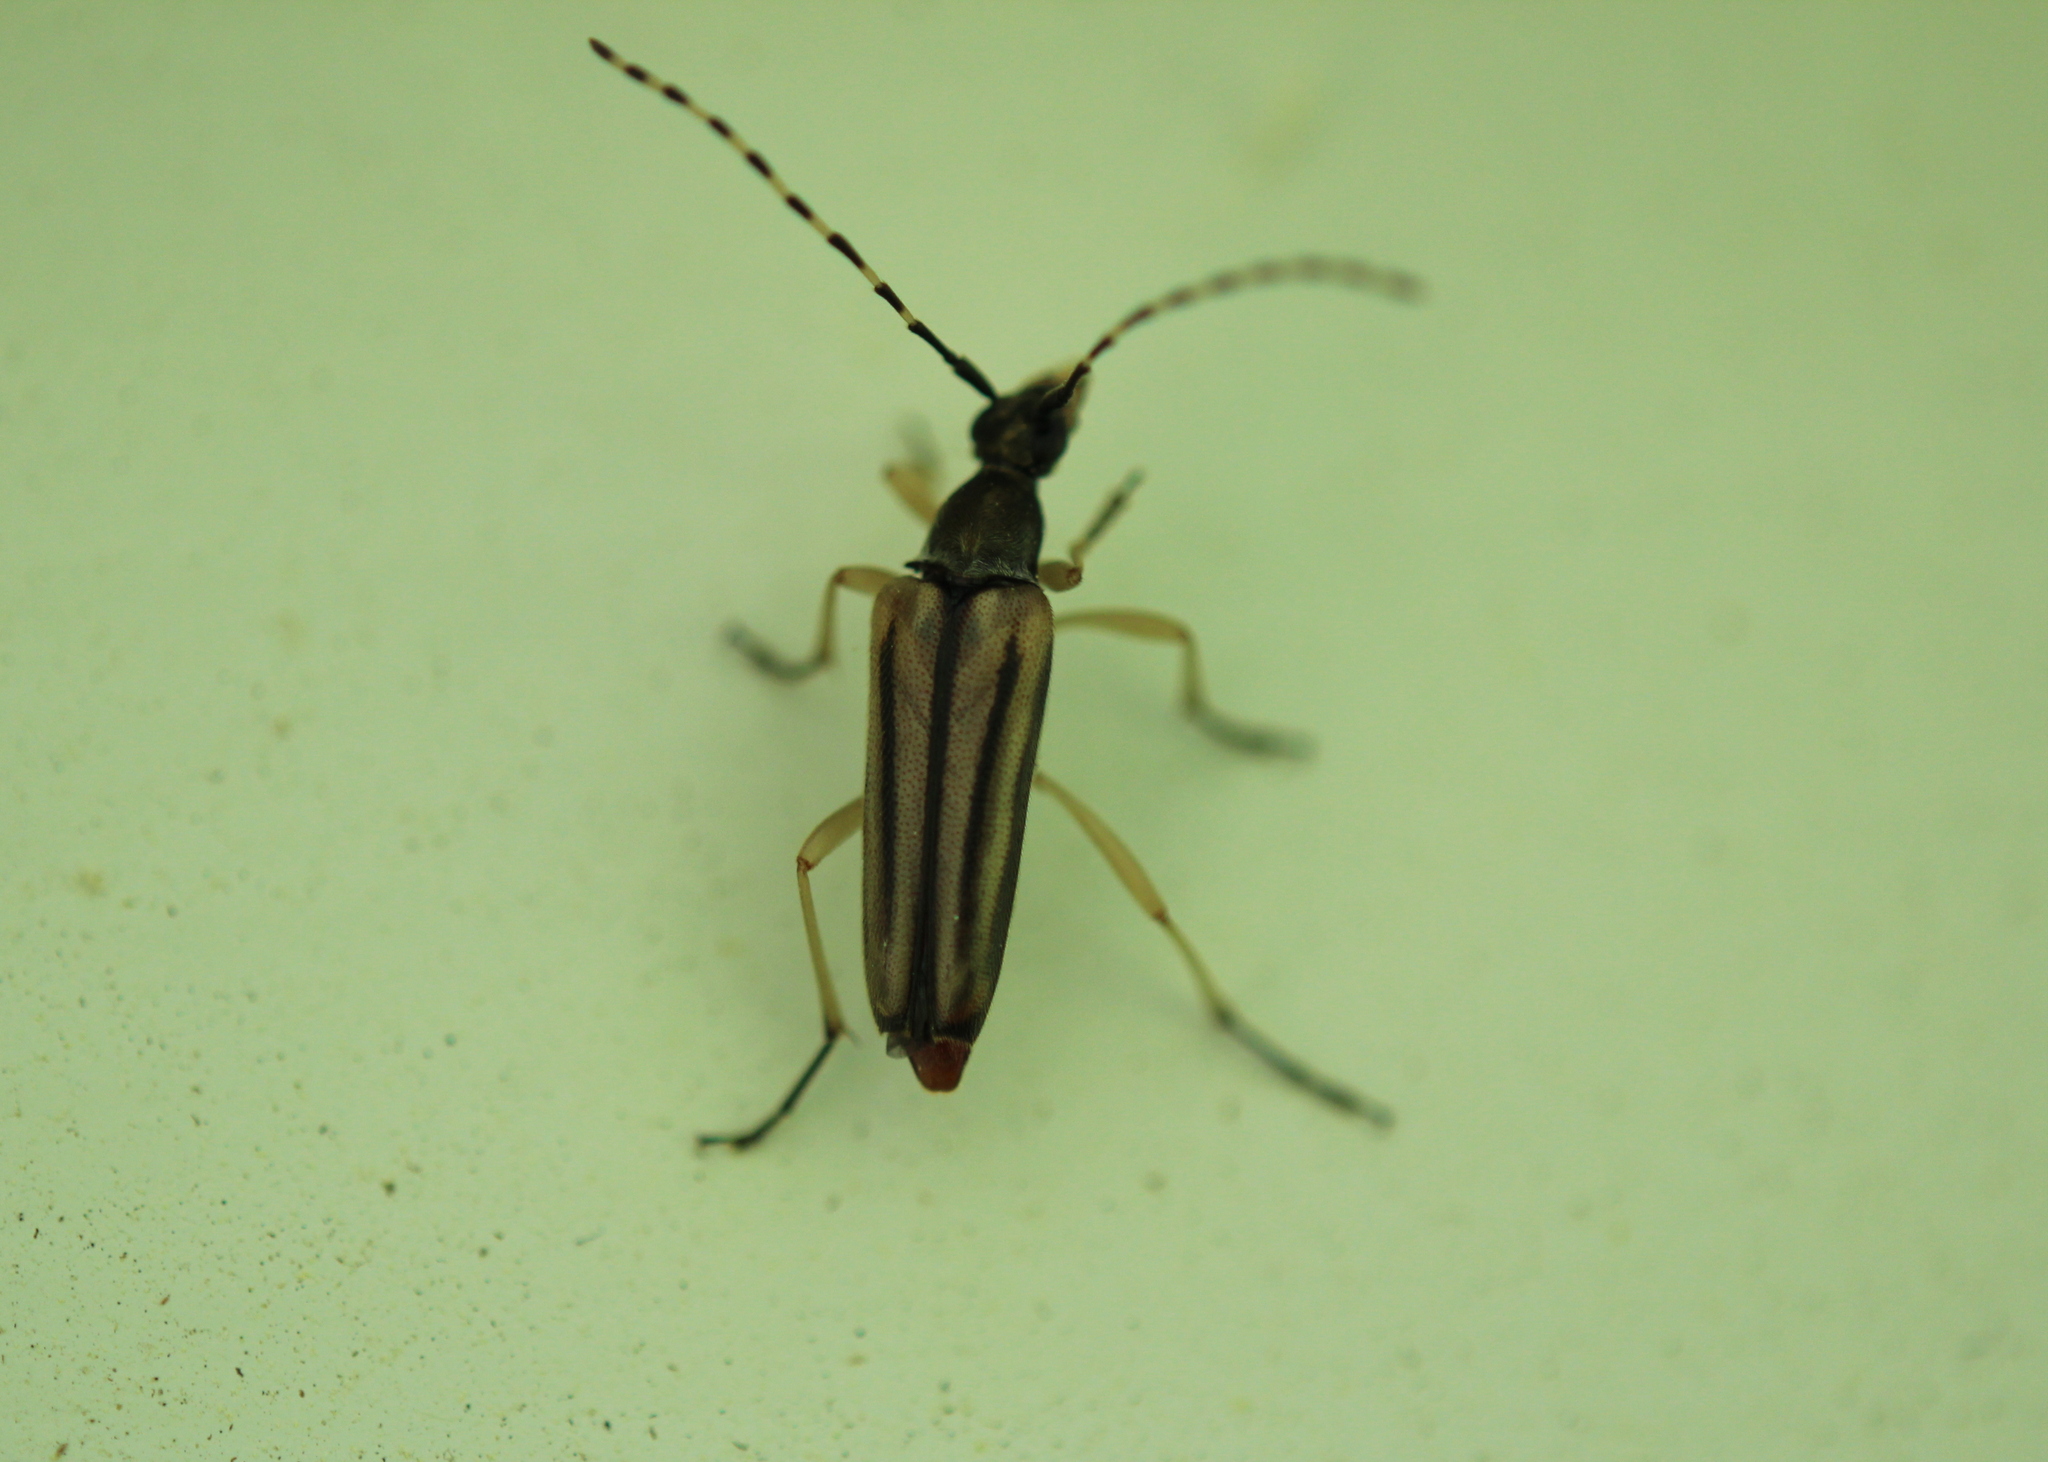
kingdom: Animalia
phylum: Arthropoda
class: Insecta
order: Coleoptera
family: Cerambycidae
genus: Analeptura
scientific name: Analeptura lineola
